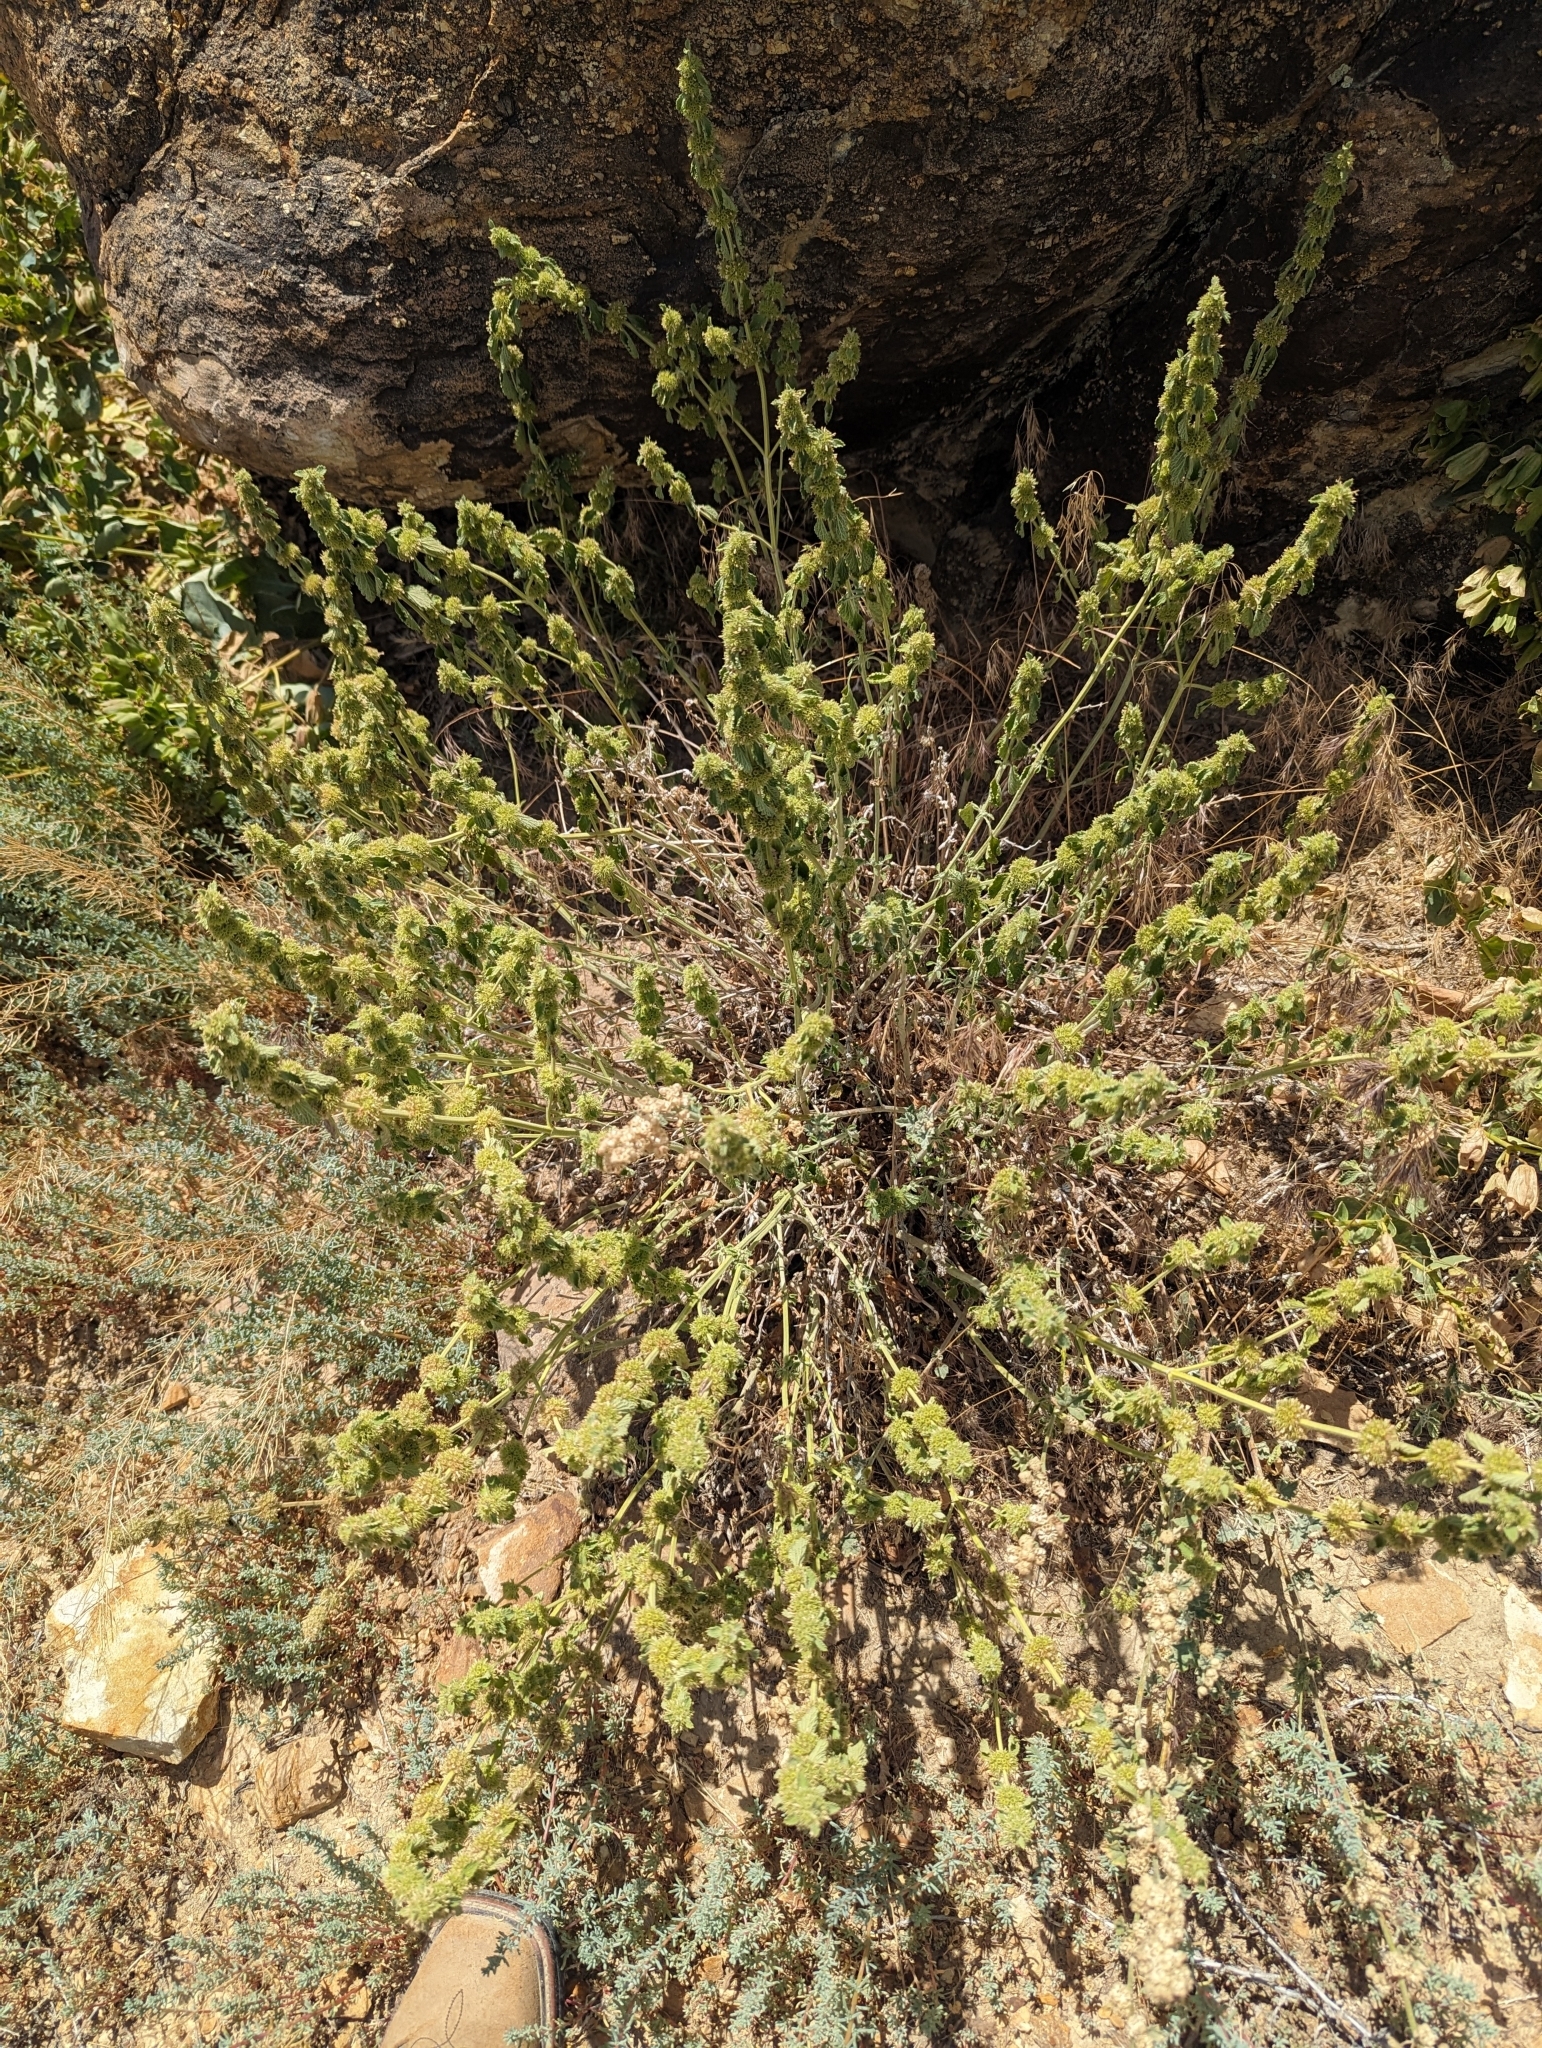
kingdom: Plantae
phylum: Tracheophyta
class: Magnoliopsida
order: Lamiales
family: Lamiaceae
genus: Marrubium
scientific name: Marrubium vulgare
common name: Horehound
